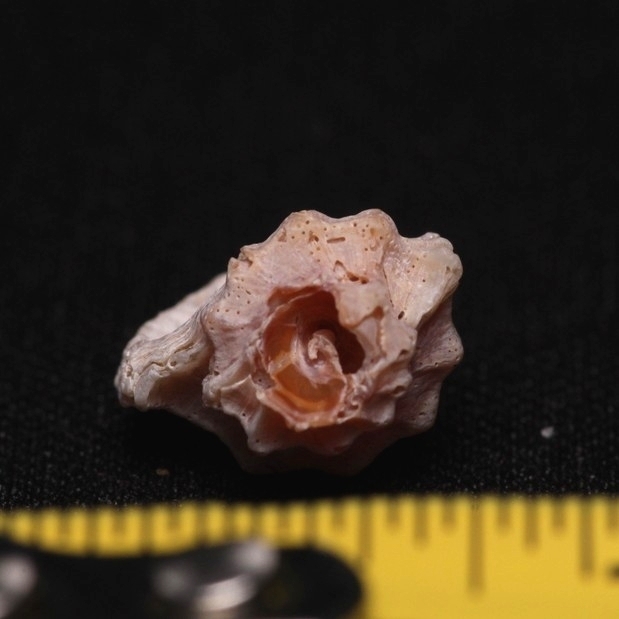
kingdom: Animalia
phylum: Mollusca
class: Gastropoda
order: Neogastropoda
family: Muricidae
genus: Eupleura
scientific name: Eupleura caudata
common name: Thick-lip drill
